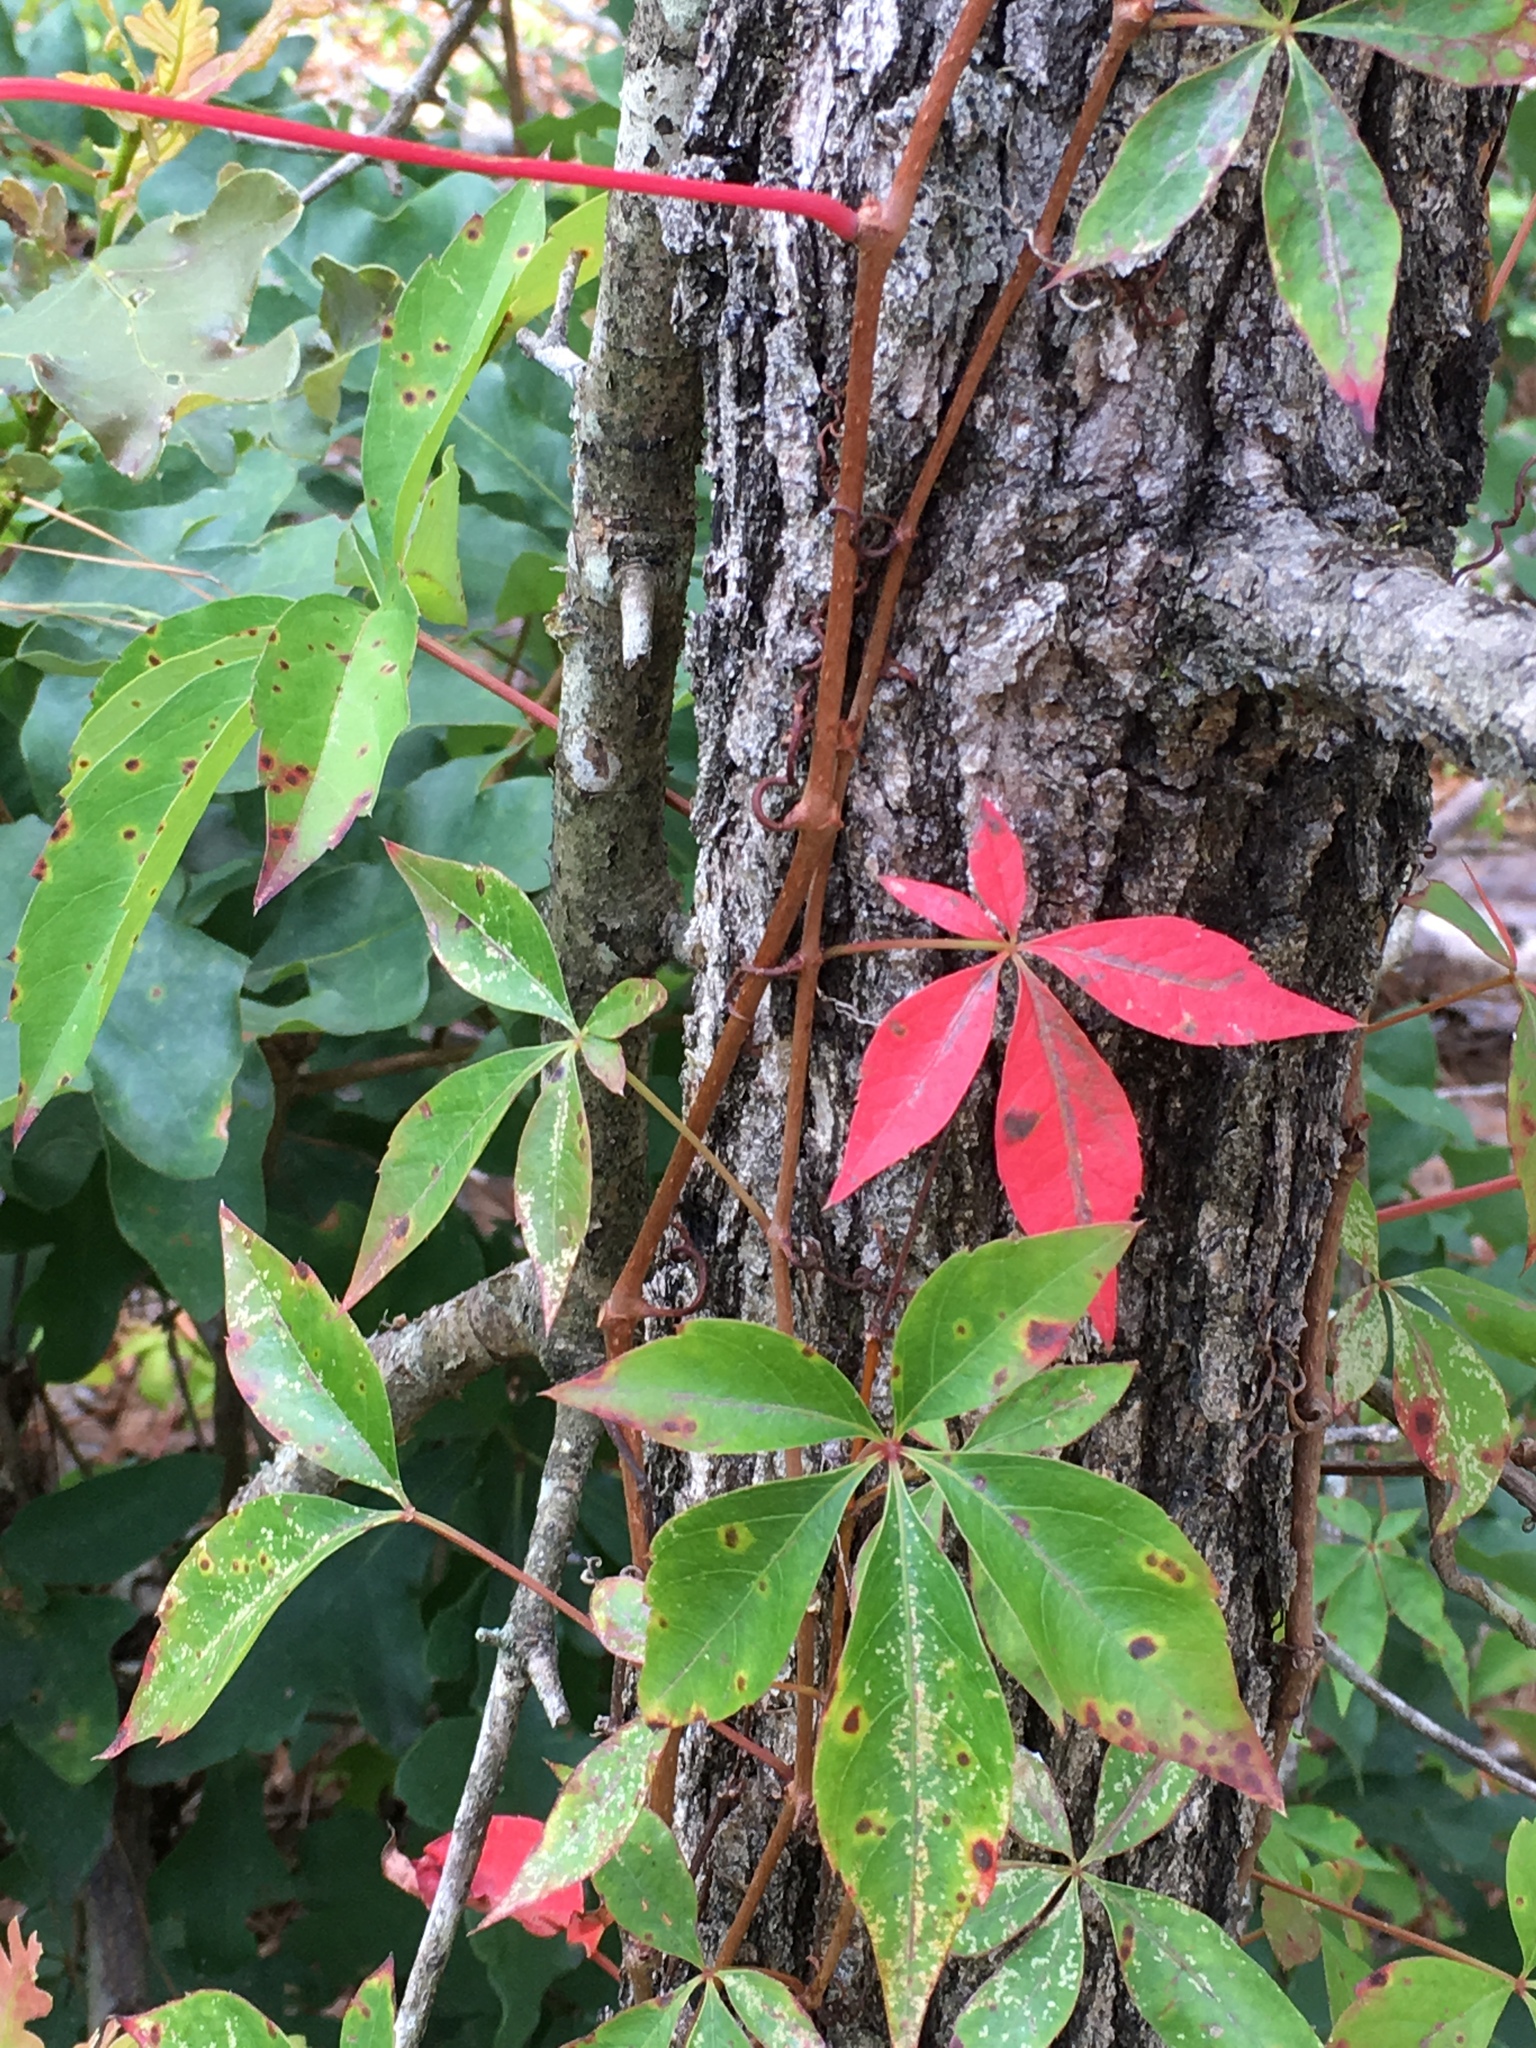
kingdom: Plantae
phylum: Tracheophyta
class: Magnoliopsida
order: Vitales
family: Vitaceae
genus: Parthenocissus
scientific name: Parthenocissus quinquefolia
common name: Virginia-creeper
